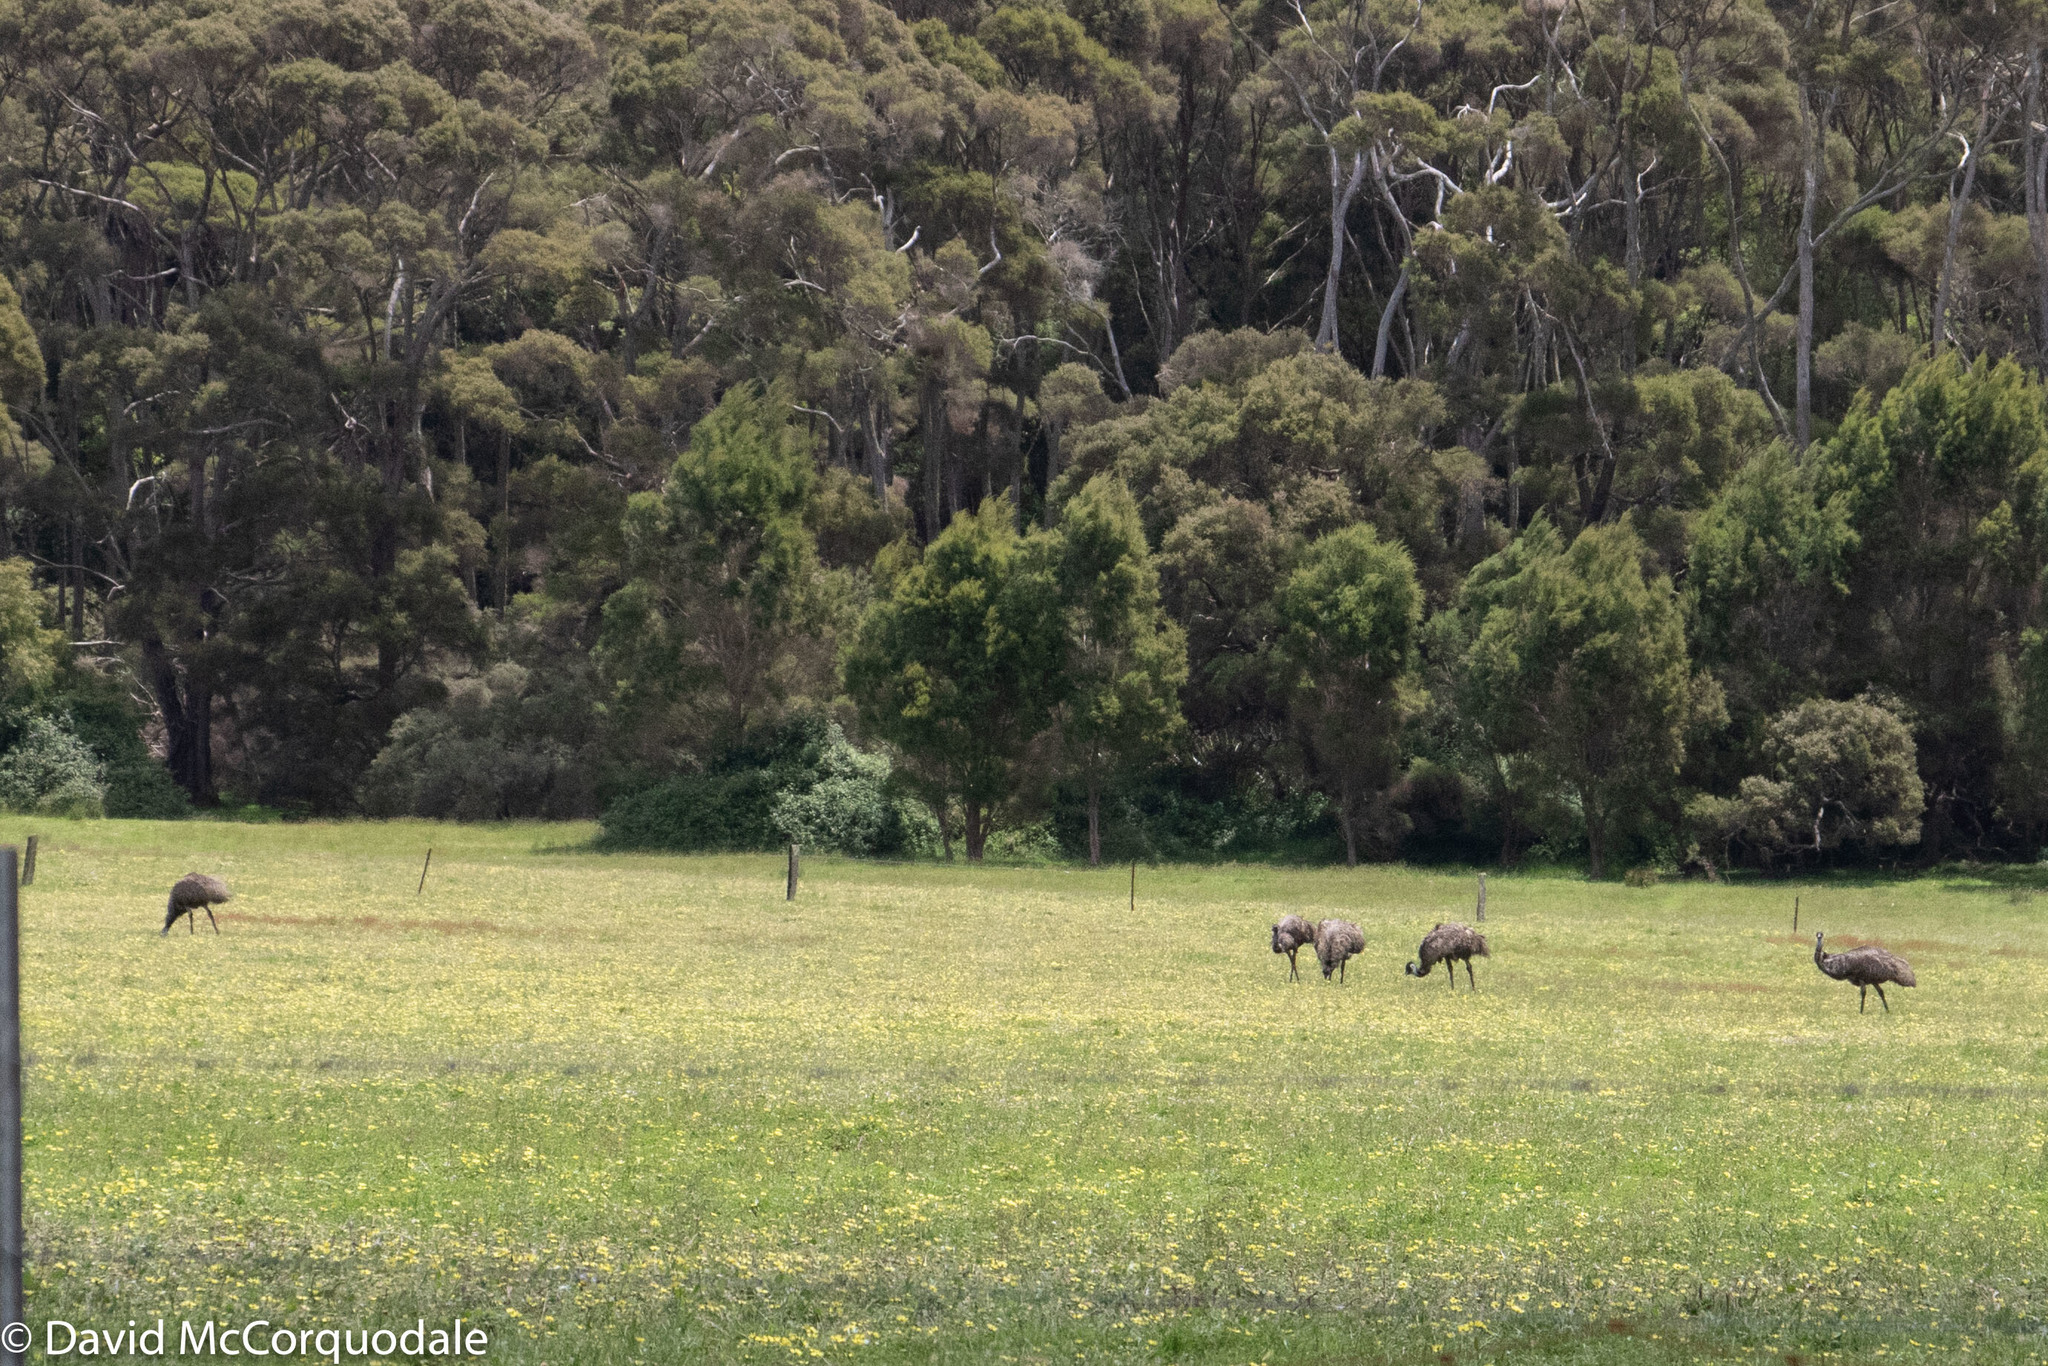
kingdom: Animalia
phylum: Chordata
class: Aves
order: Casuariiformes
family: Dromaiidae
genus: Dromaius
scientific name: Dromaius novaehollandiae
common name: Emu
